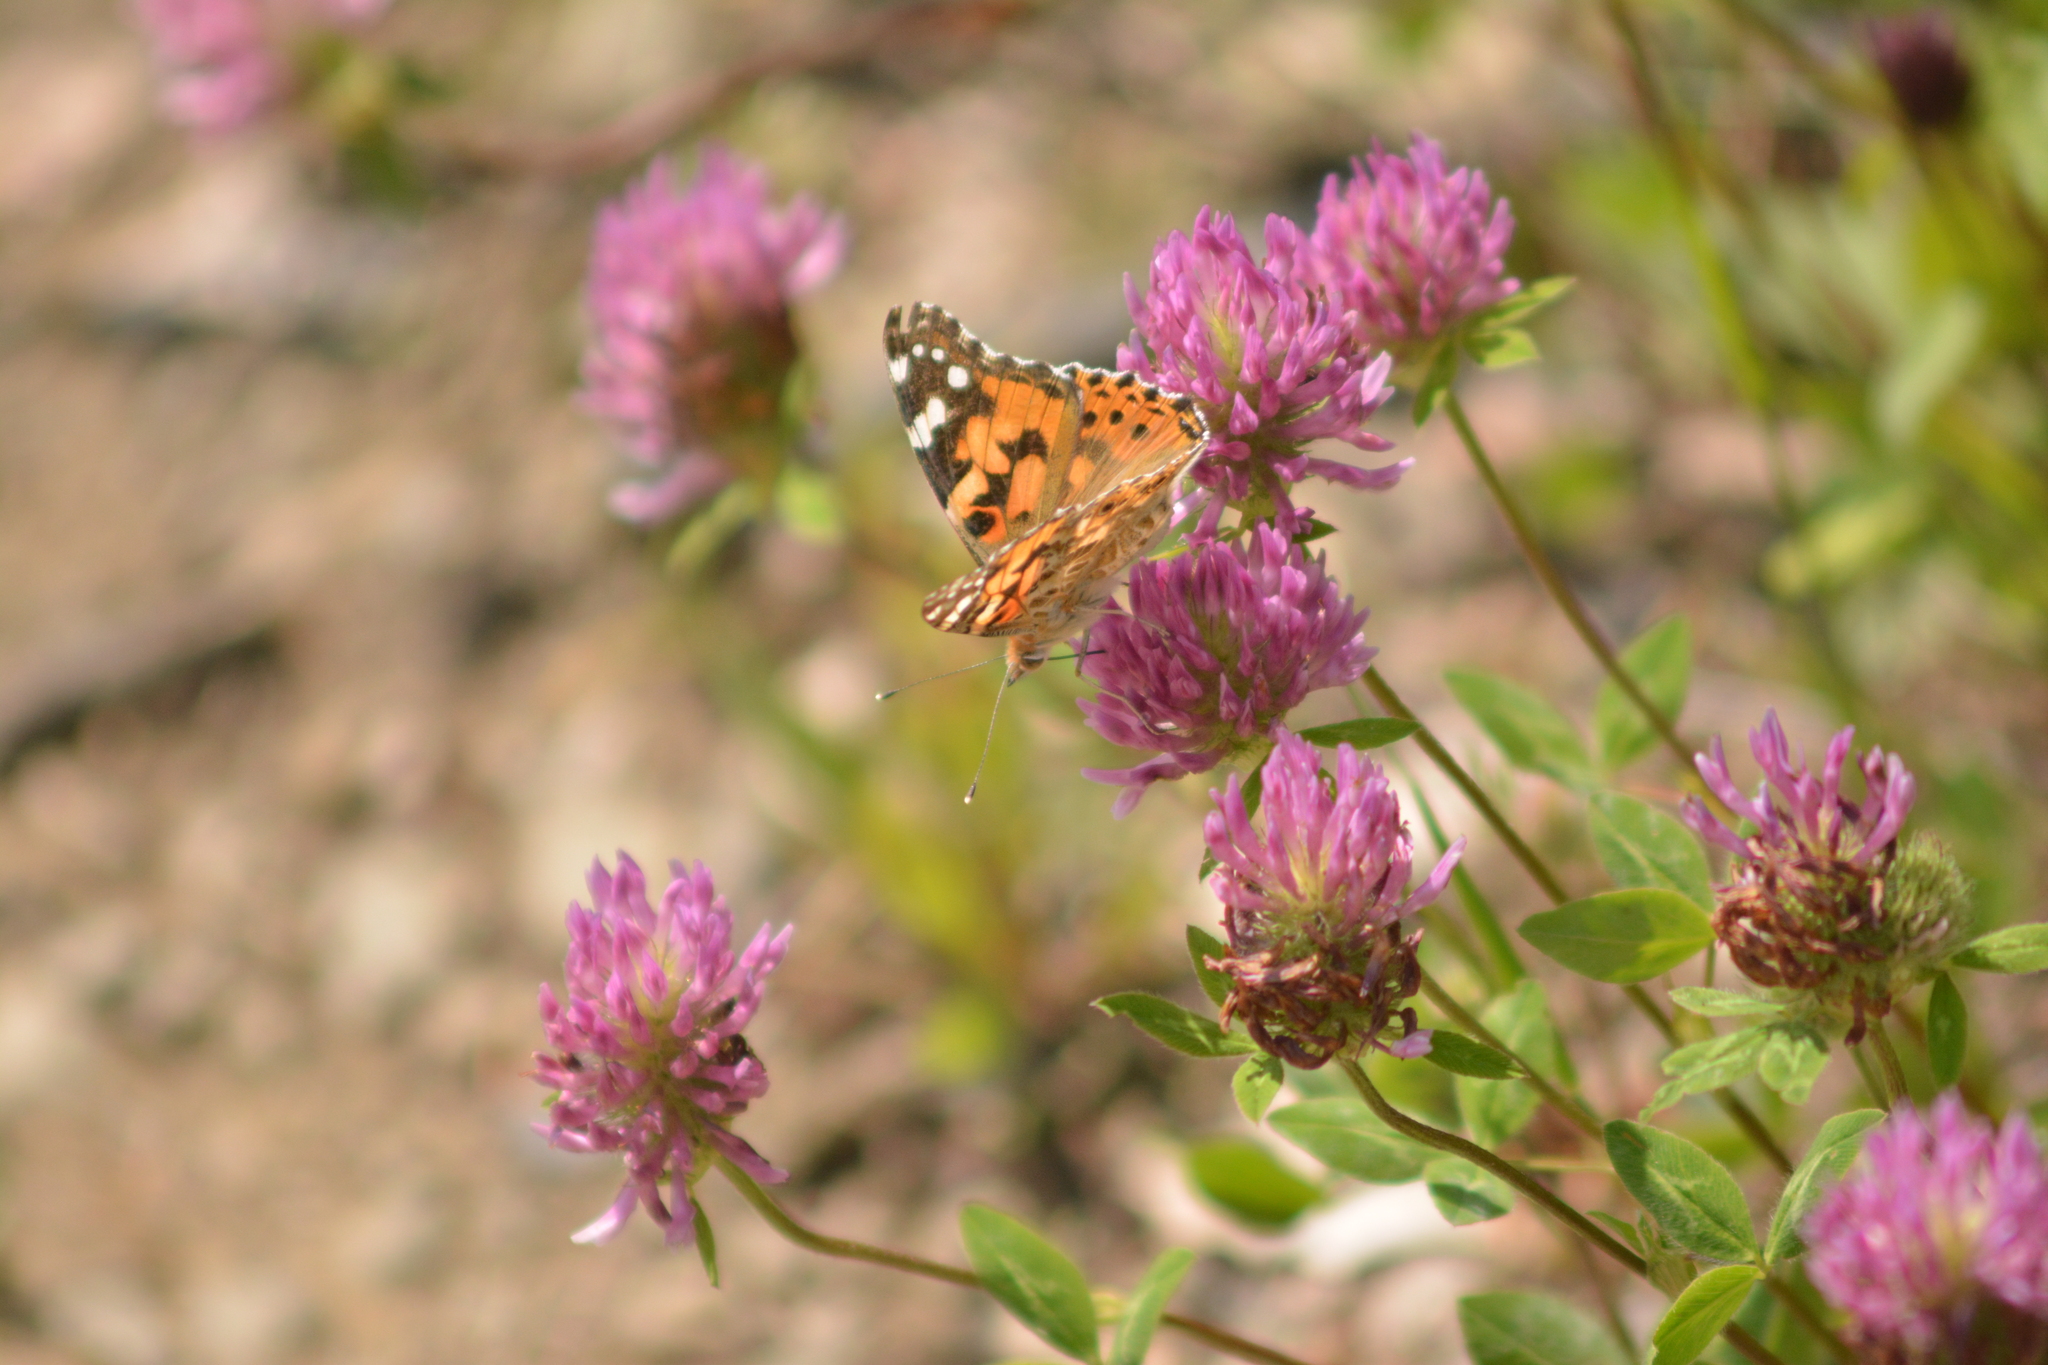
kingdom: Animalia
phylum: Arthropoda
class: Insecta
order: Lepidoptera
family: Nymphalidae
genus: Vanessa
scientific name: Vanessa cardui
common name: Painted lady
